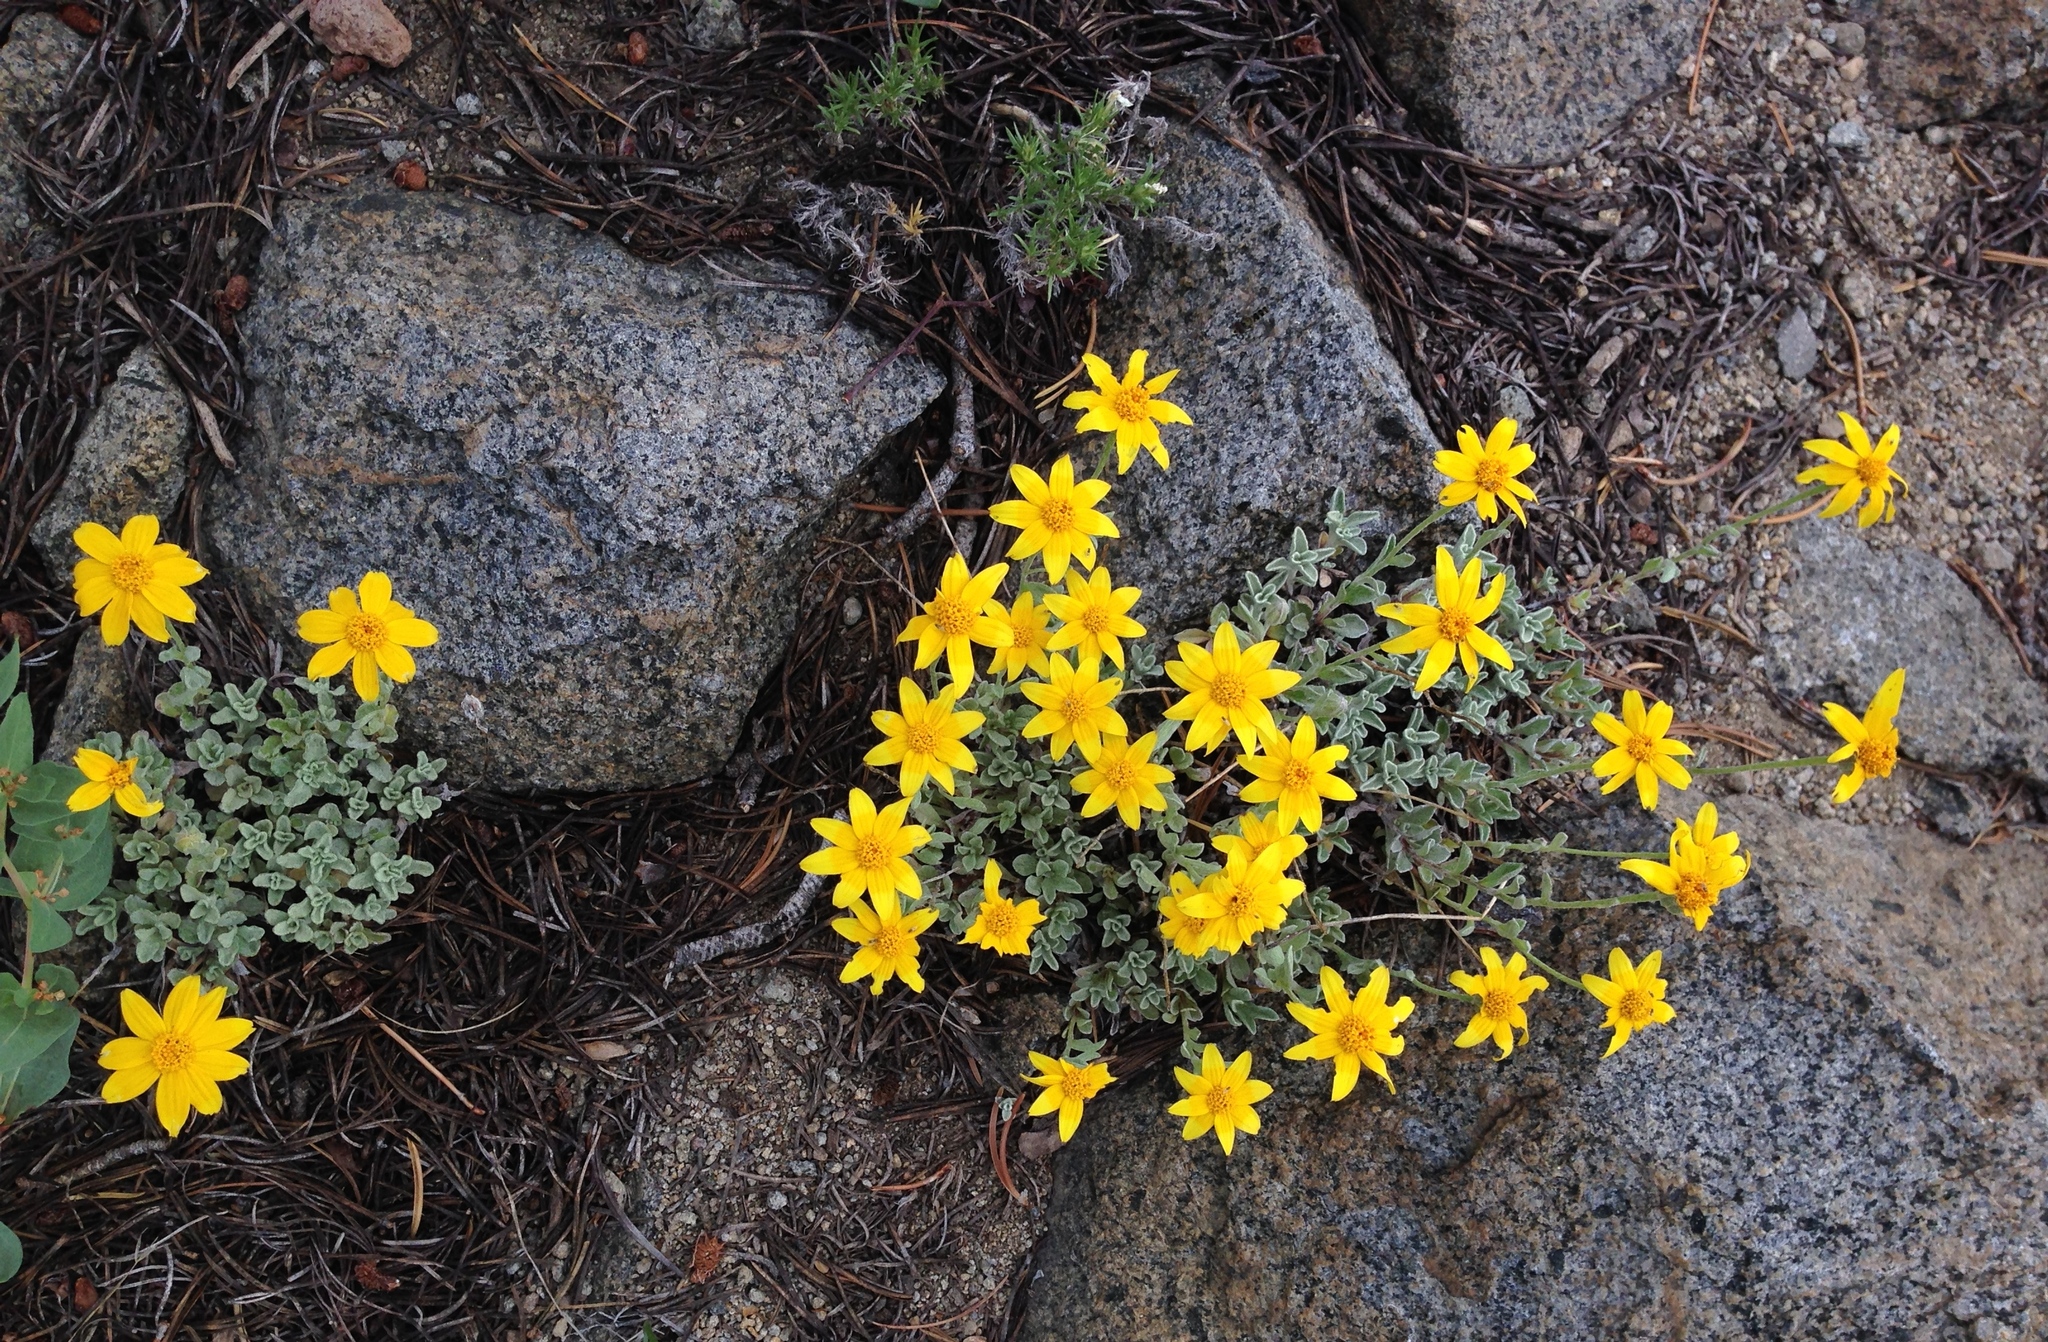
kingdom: Plantae
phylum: Tracheophyta
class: Magnoliopsida
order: Asterales
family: Asteraceae
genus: Eriophyllum
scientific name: Eriophyllum lanatum
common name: Common woolly-sunflower
